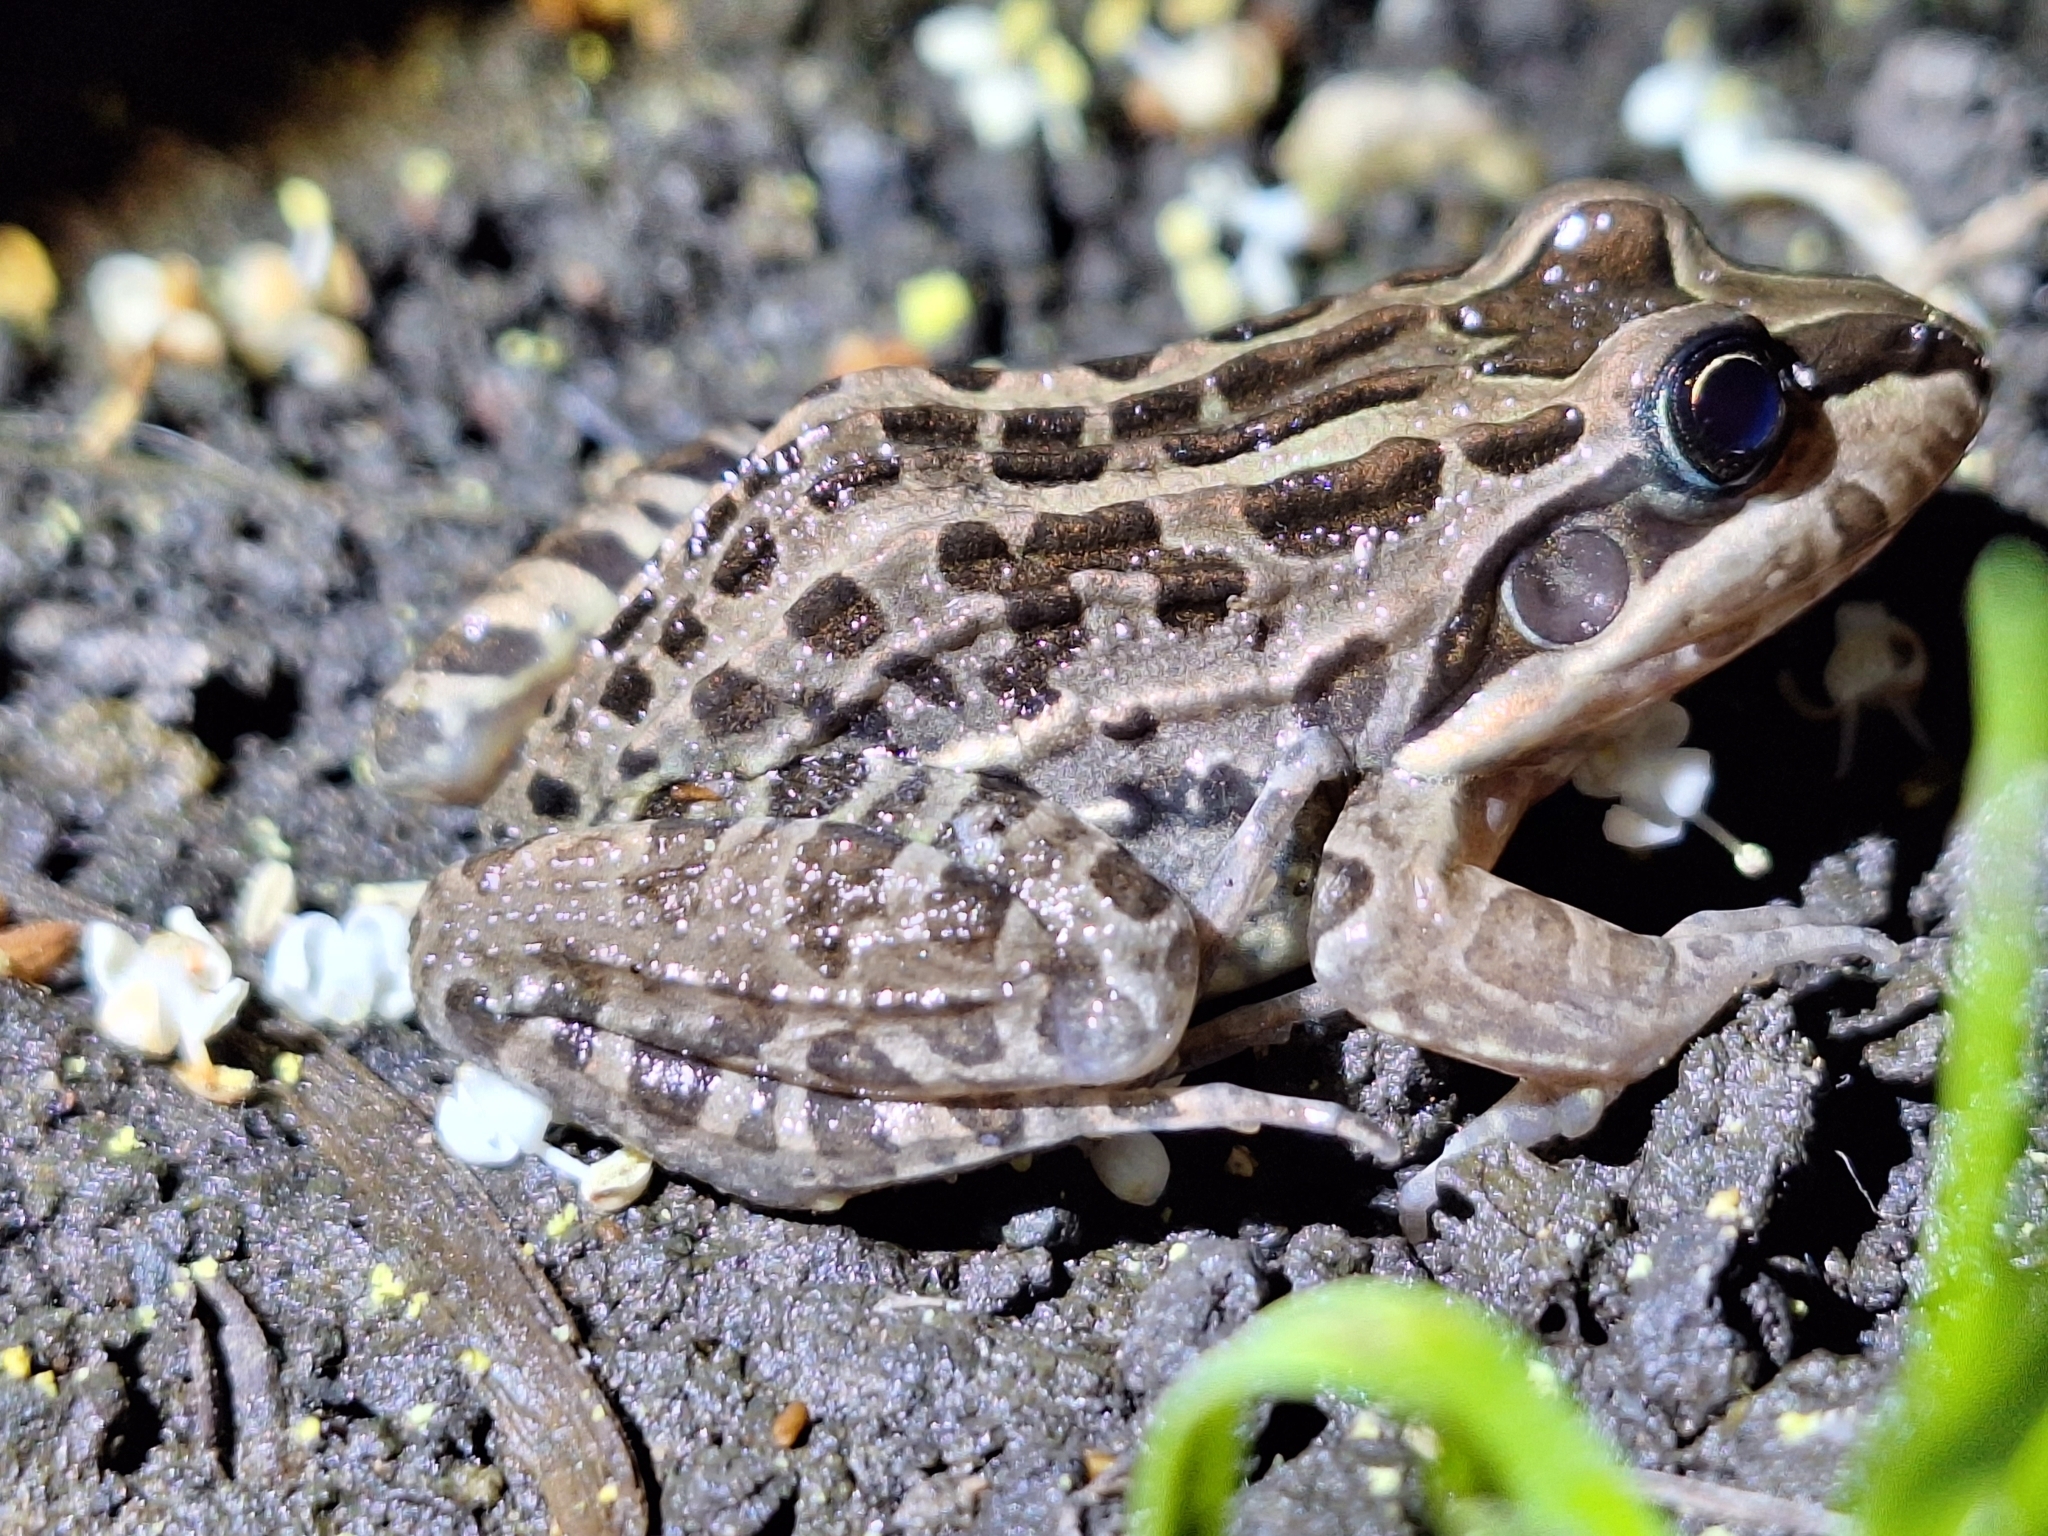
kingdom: Animalia
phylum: Chordata
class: Amphibia
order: Anura
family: Leptodactylidae
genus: Leptodactylus
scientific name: Leptodactylus luctator
